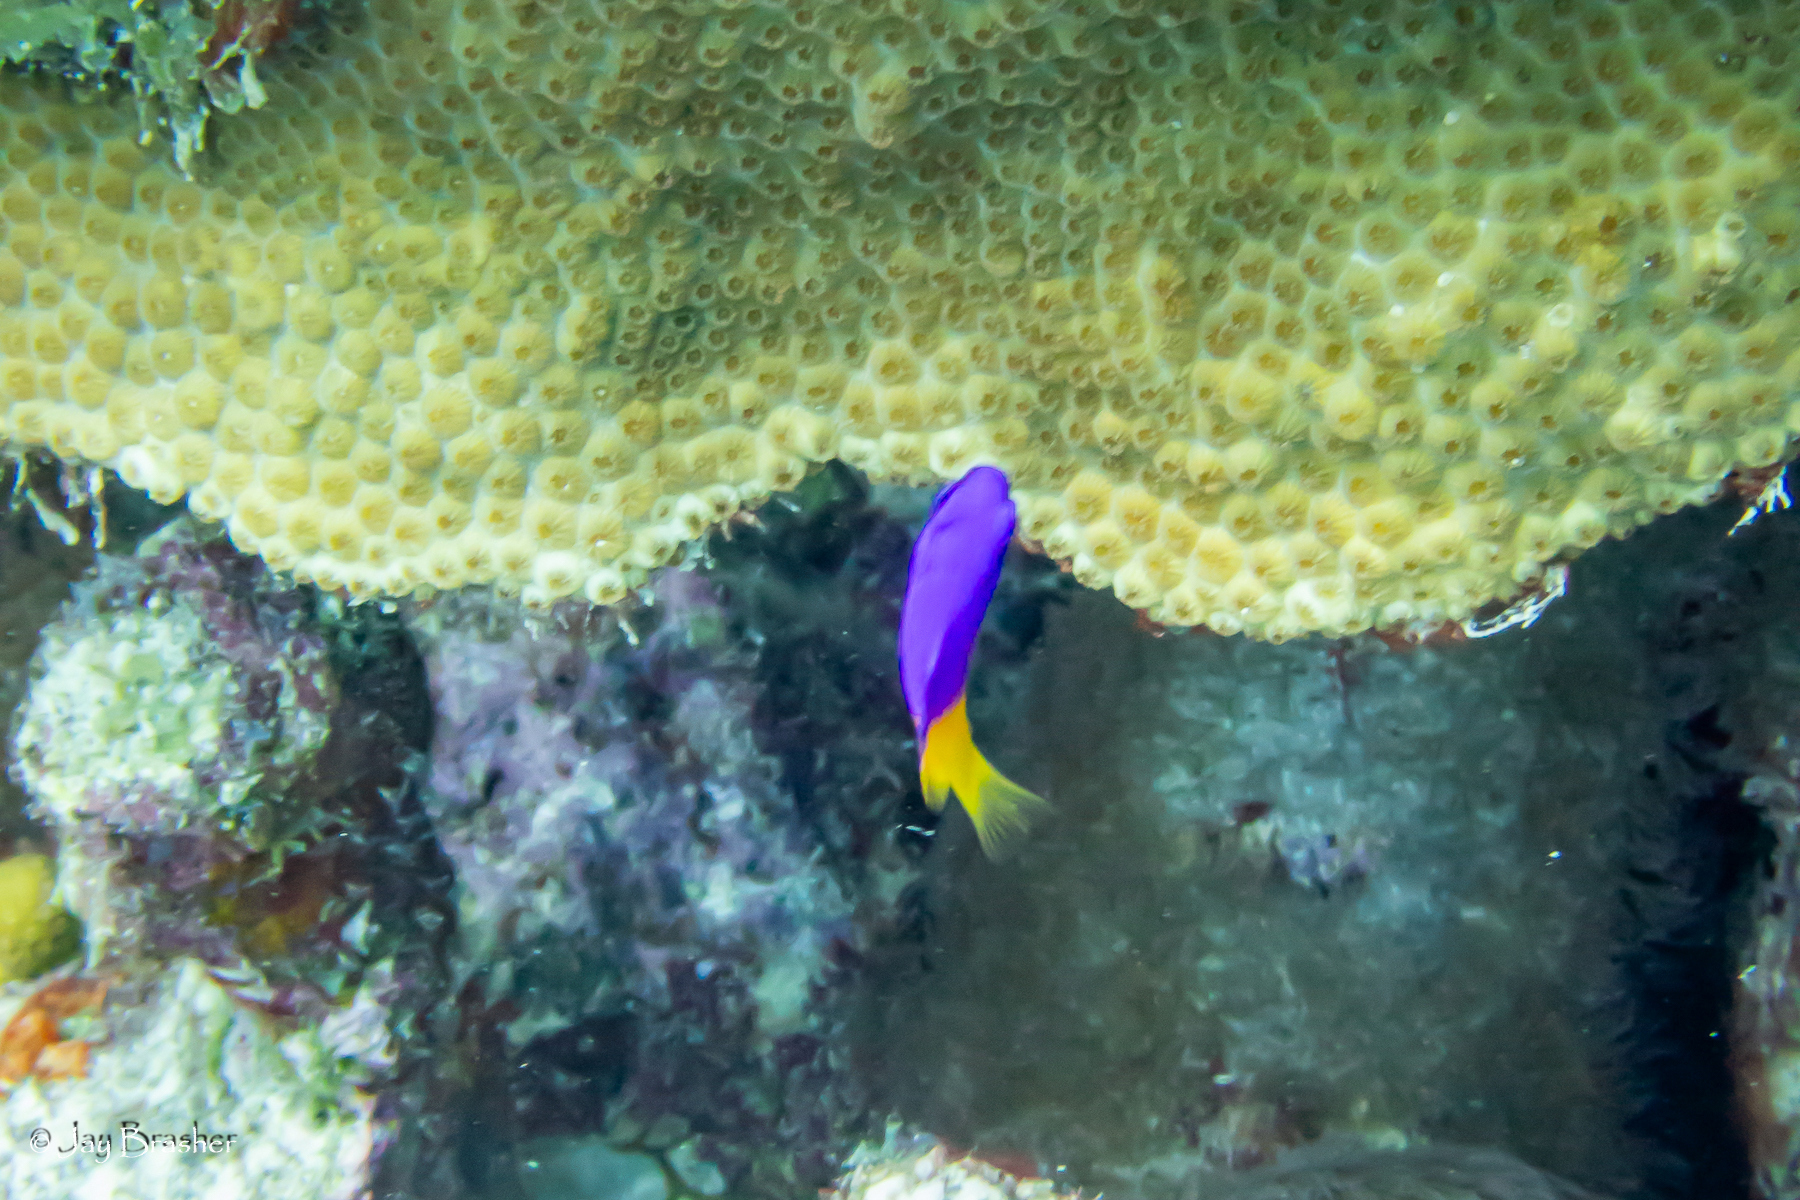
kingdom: Animalia
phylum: Chordata
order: Perciformes
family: Grammatidae
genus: Gramma
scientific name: Gramma loreto
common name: Fairy basslet
